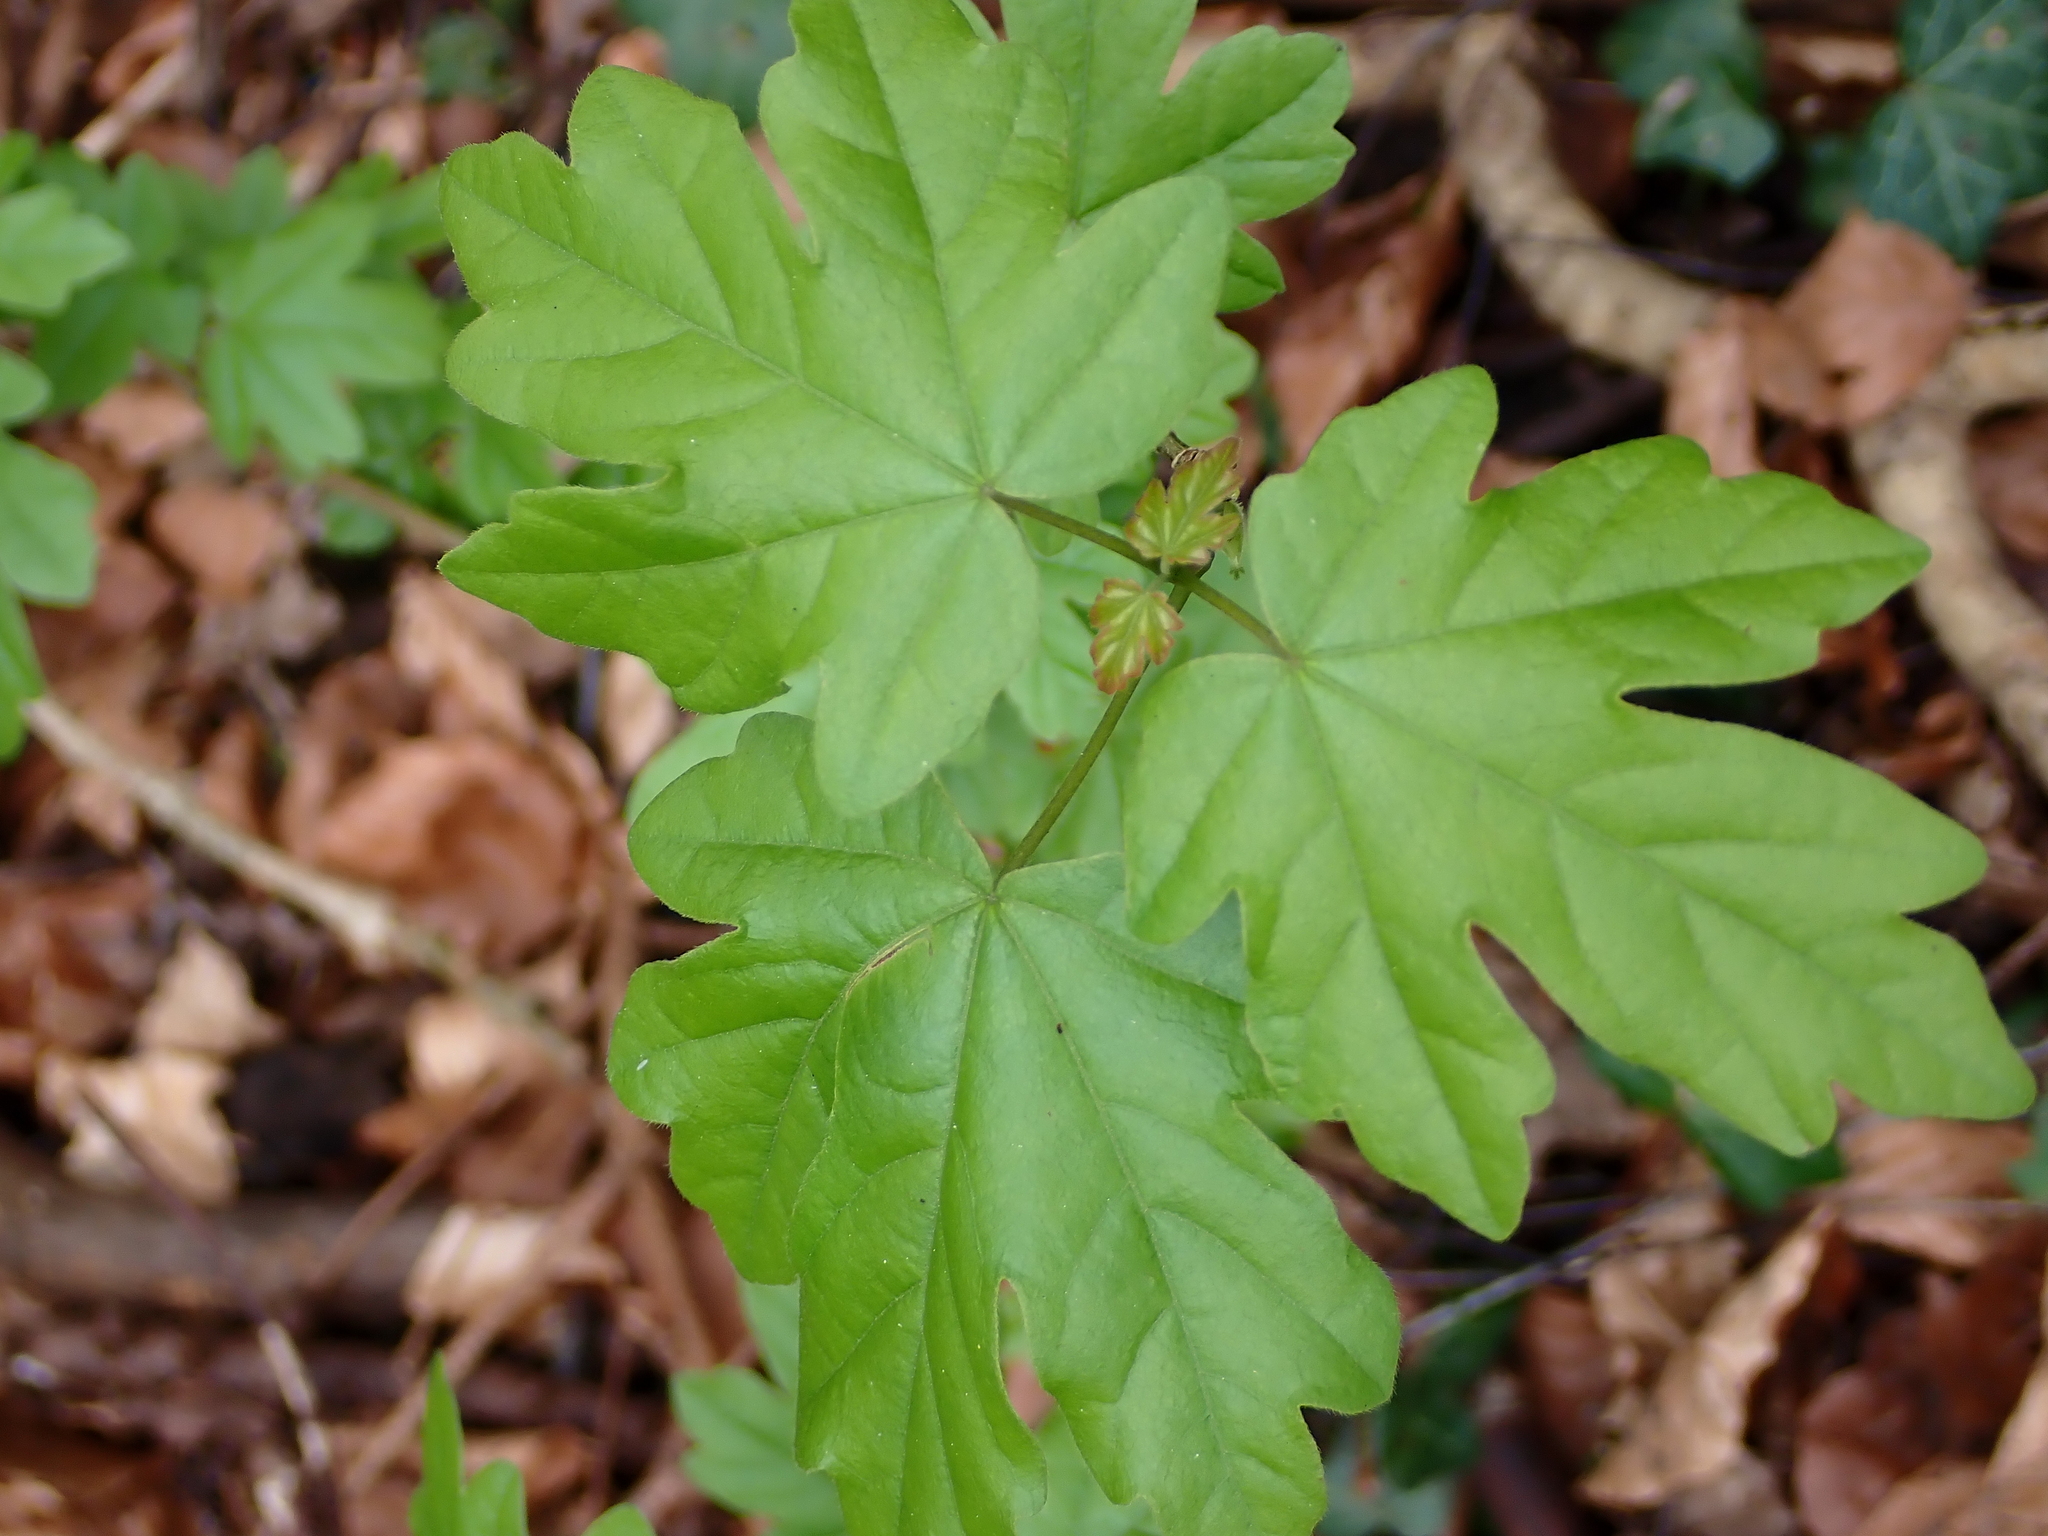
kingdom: Plantae
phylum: Tracheophyta
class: Magnoliopsida
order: Sapindales
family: Sapindaceae
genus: Acer
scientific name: Acer campestre
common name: Field maple
